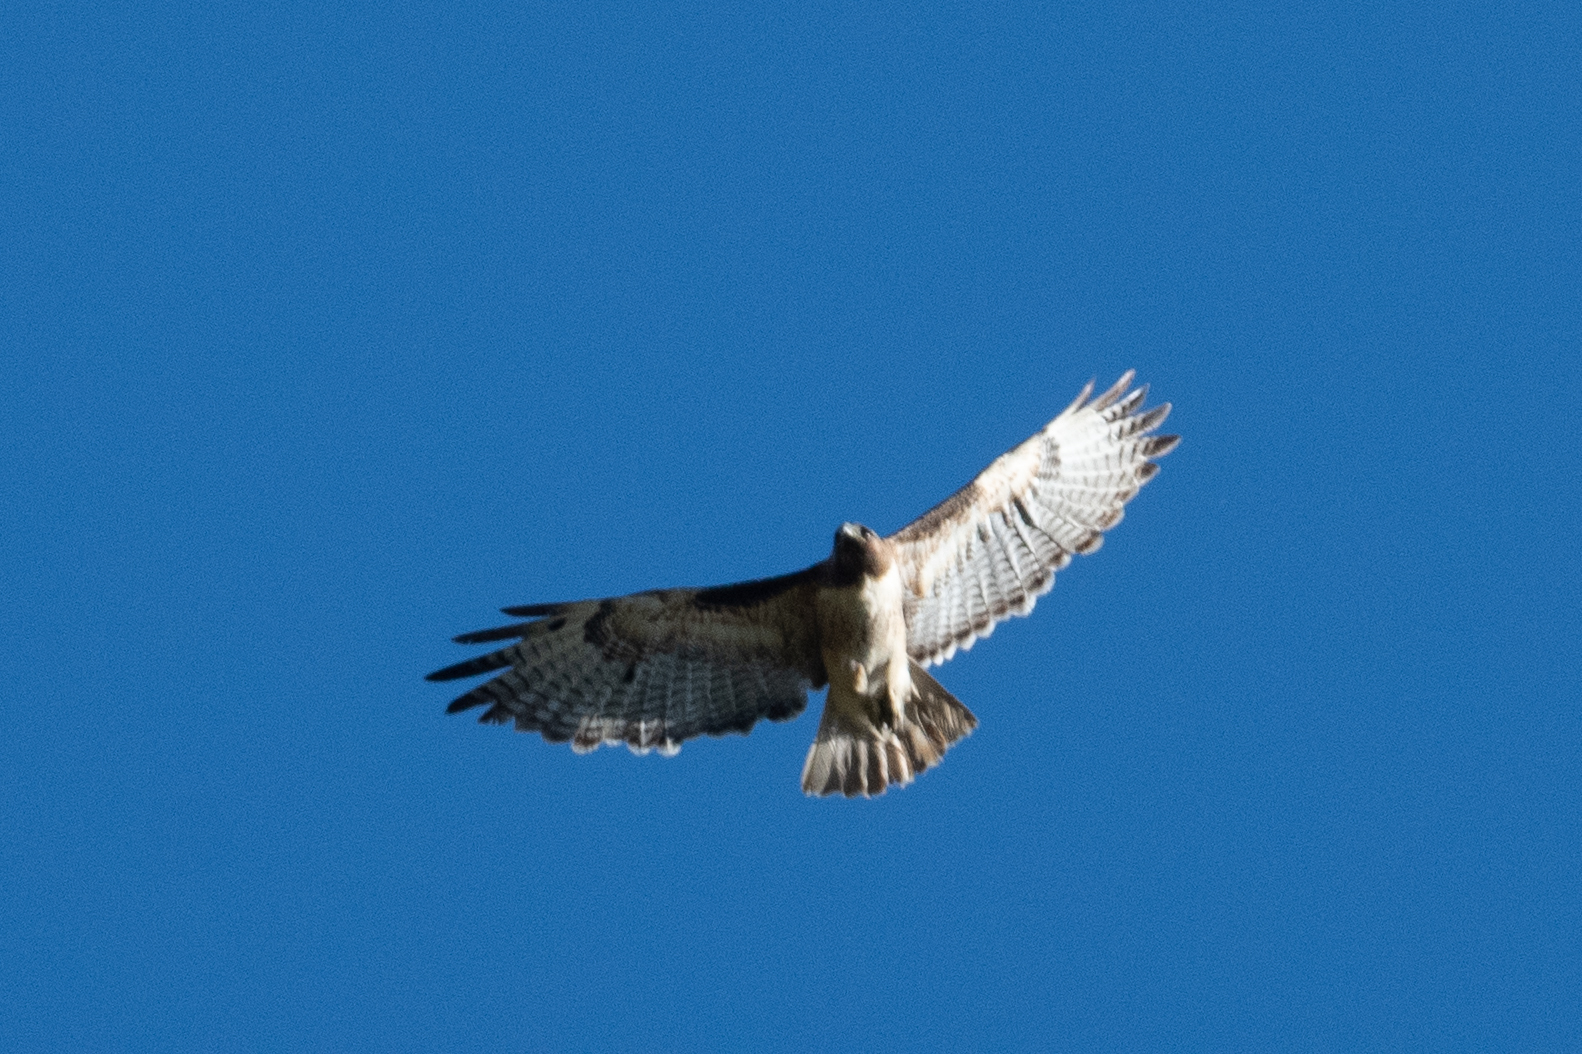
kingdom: Animalia
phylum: Chordata
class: Aves
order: Accipitriformes
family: Accipitridae
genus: Buteo
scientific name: Buteo jamaicensis
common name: Red-tailed hawk
